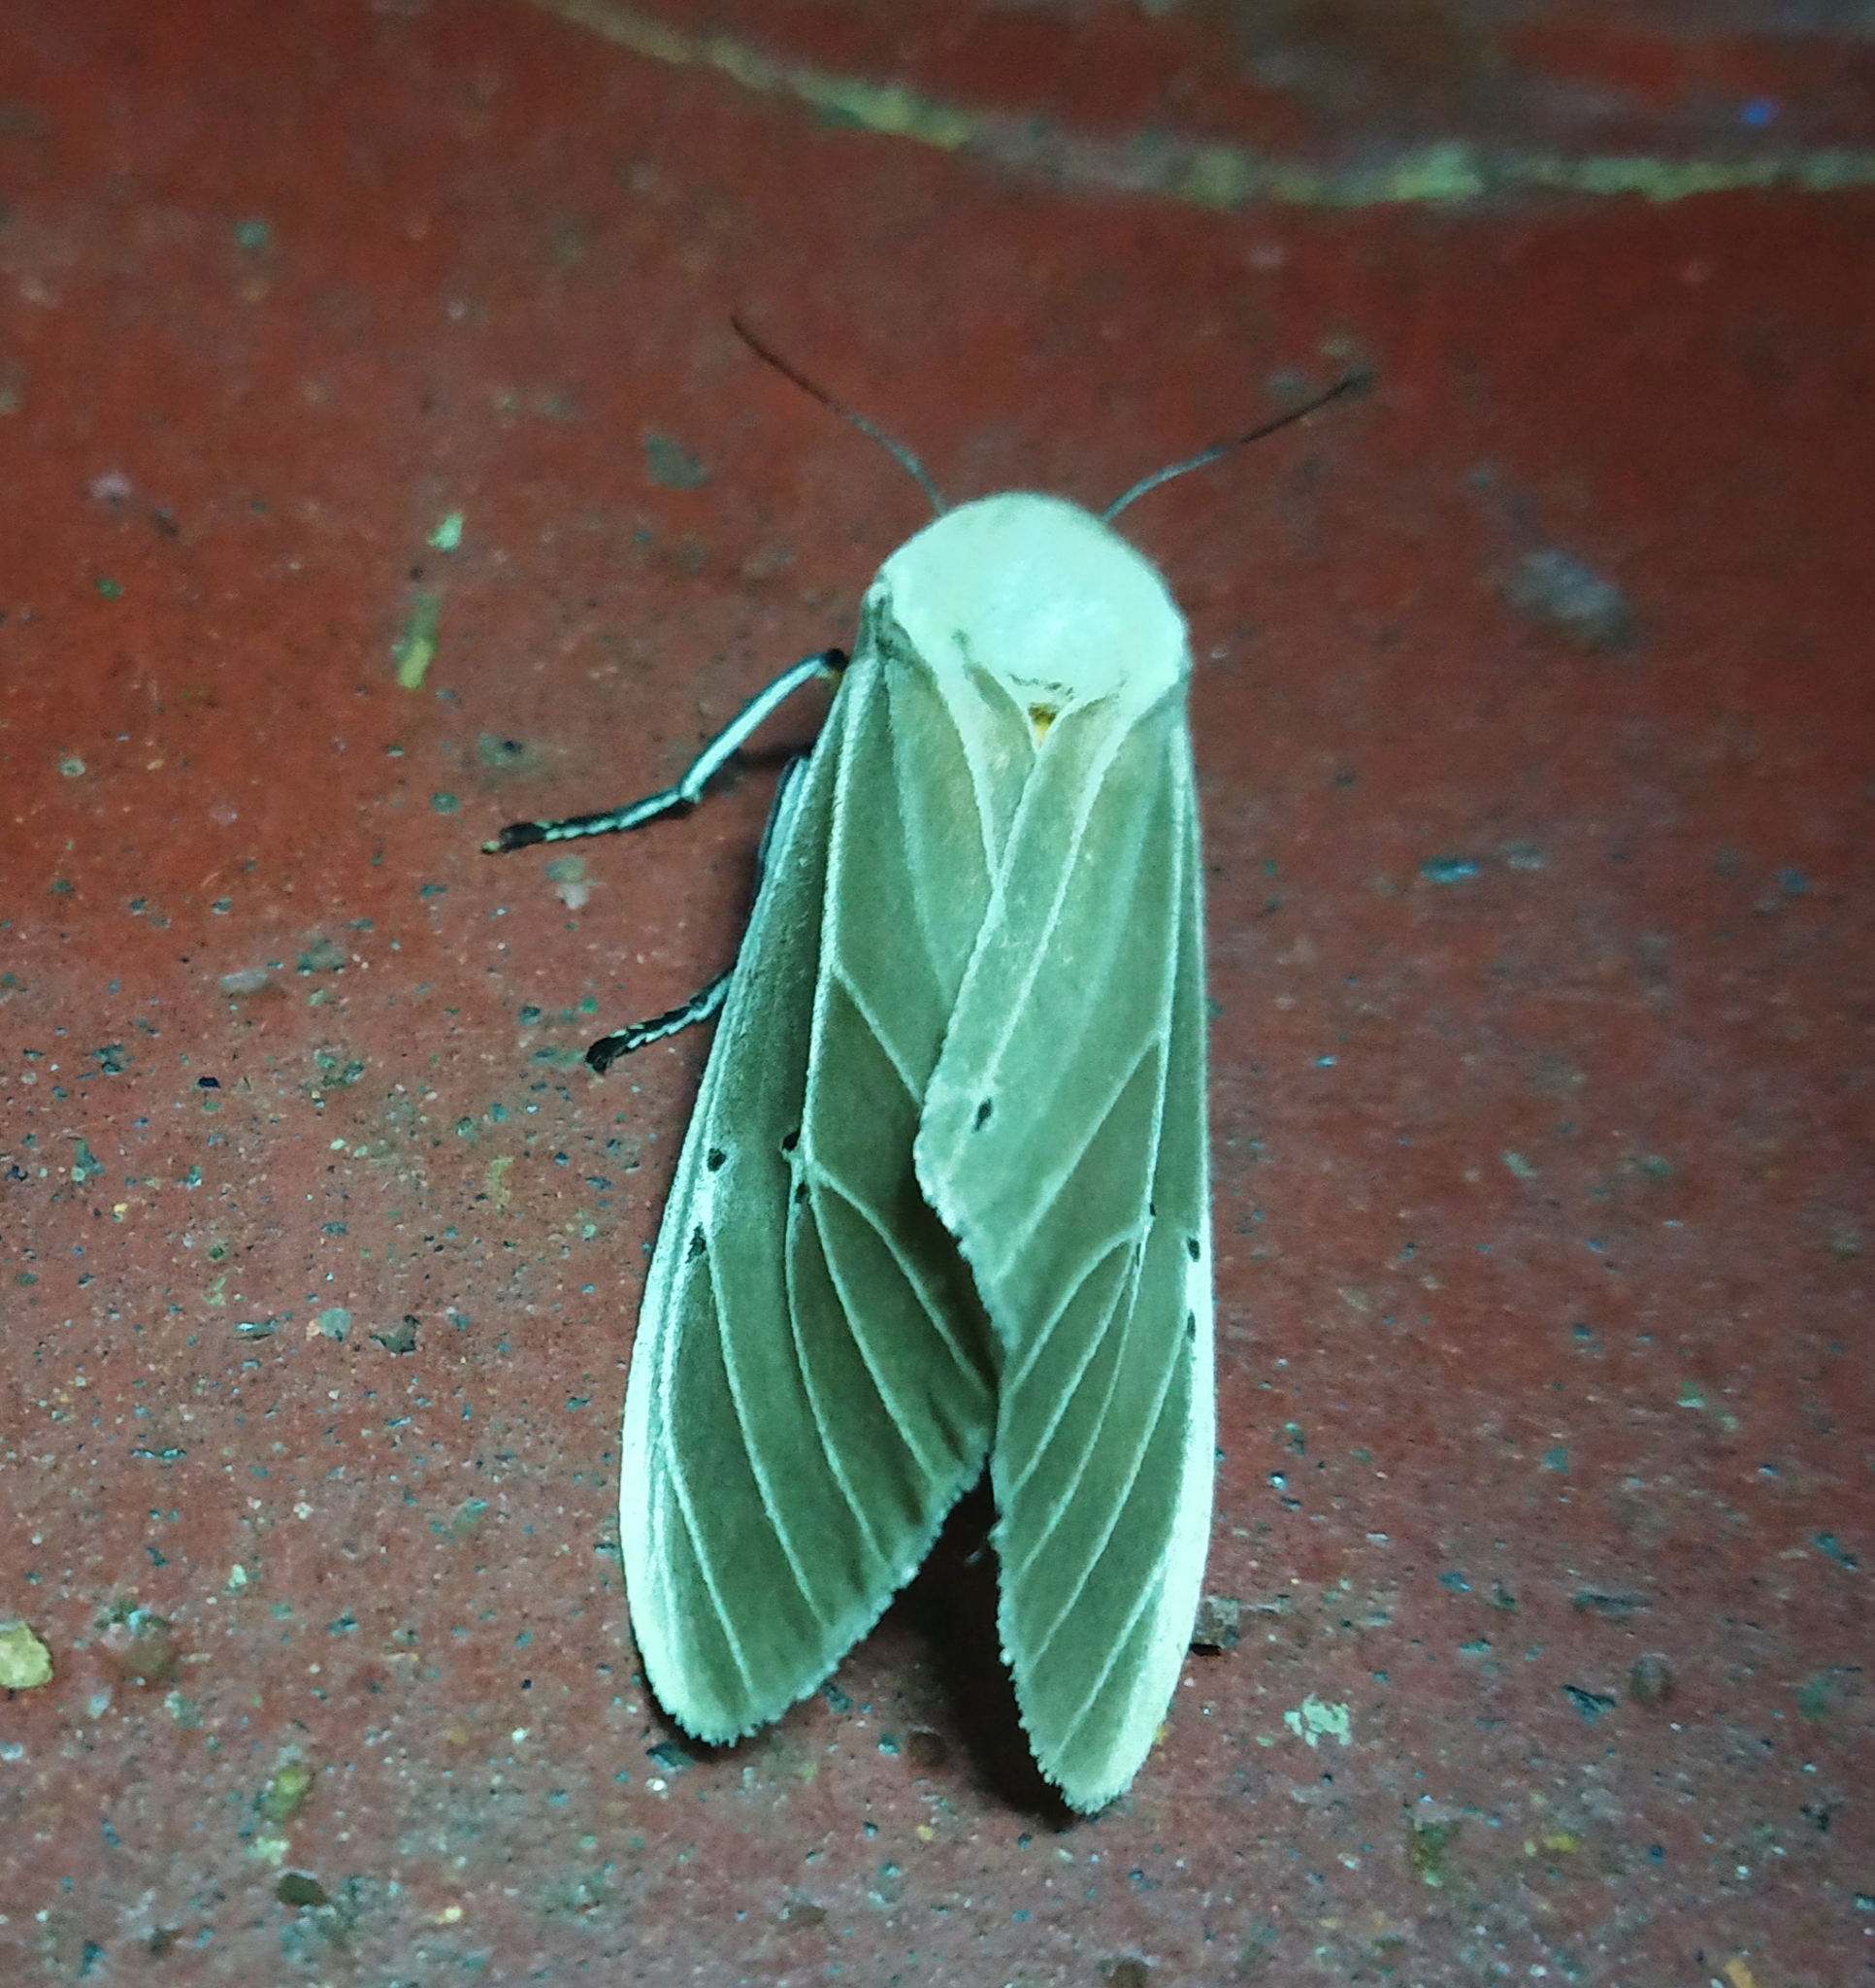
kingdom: Animalia
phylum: Arthropoda
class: Insecta
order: Lepidoptera
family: Erebidae
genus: Creatonotos
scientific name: Creatonotos transiens
